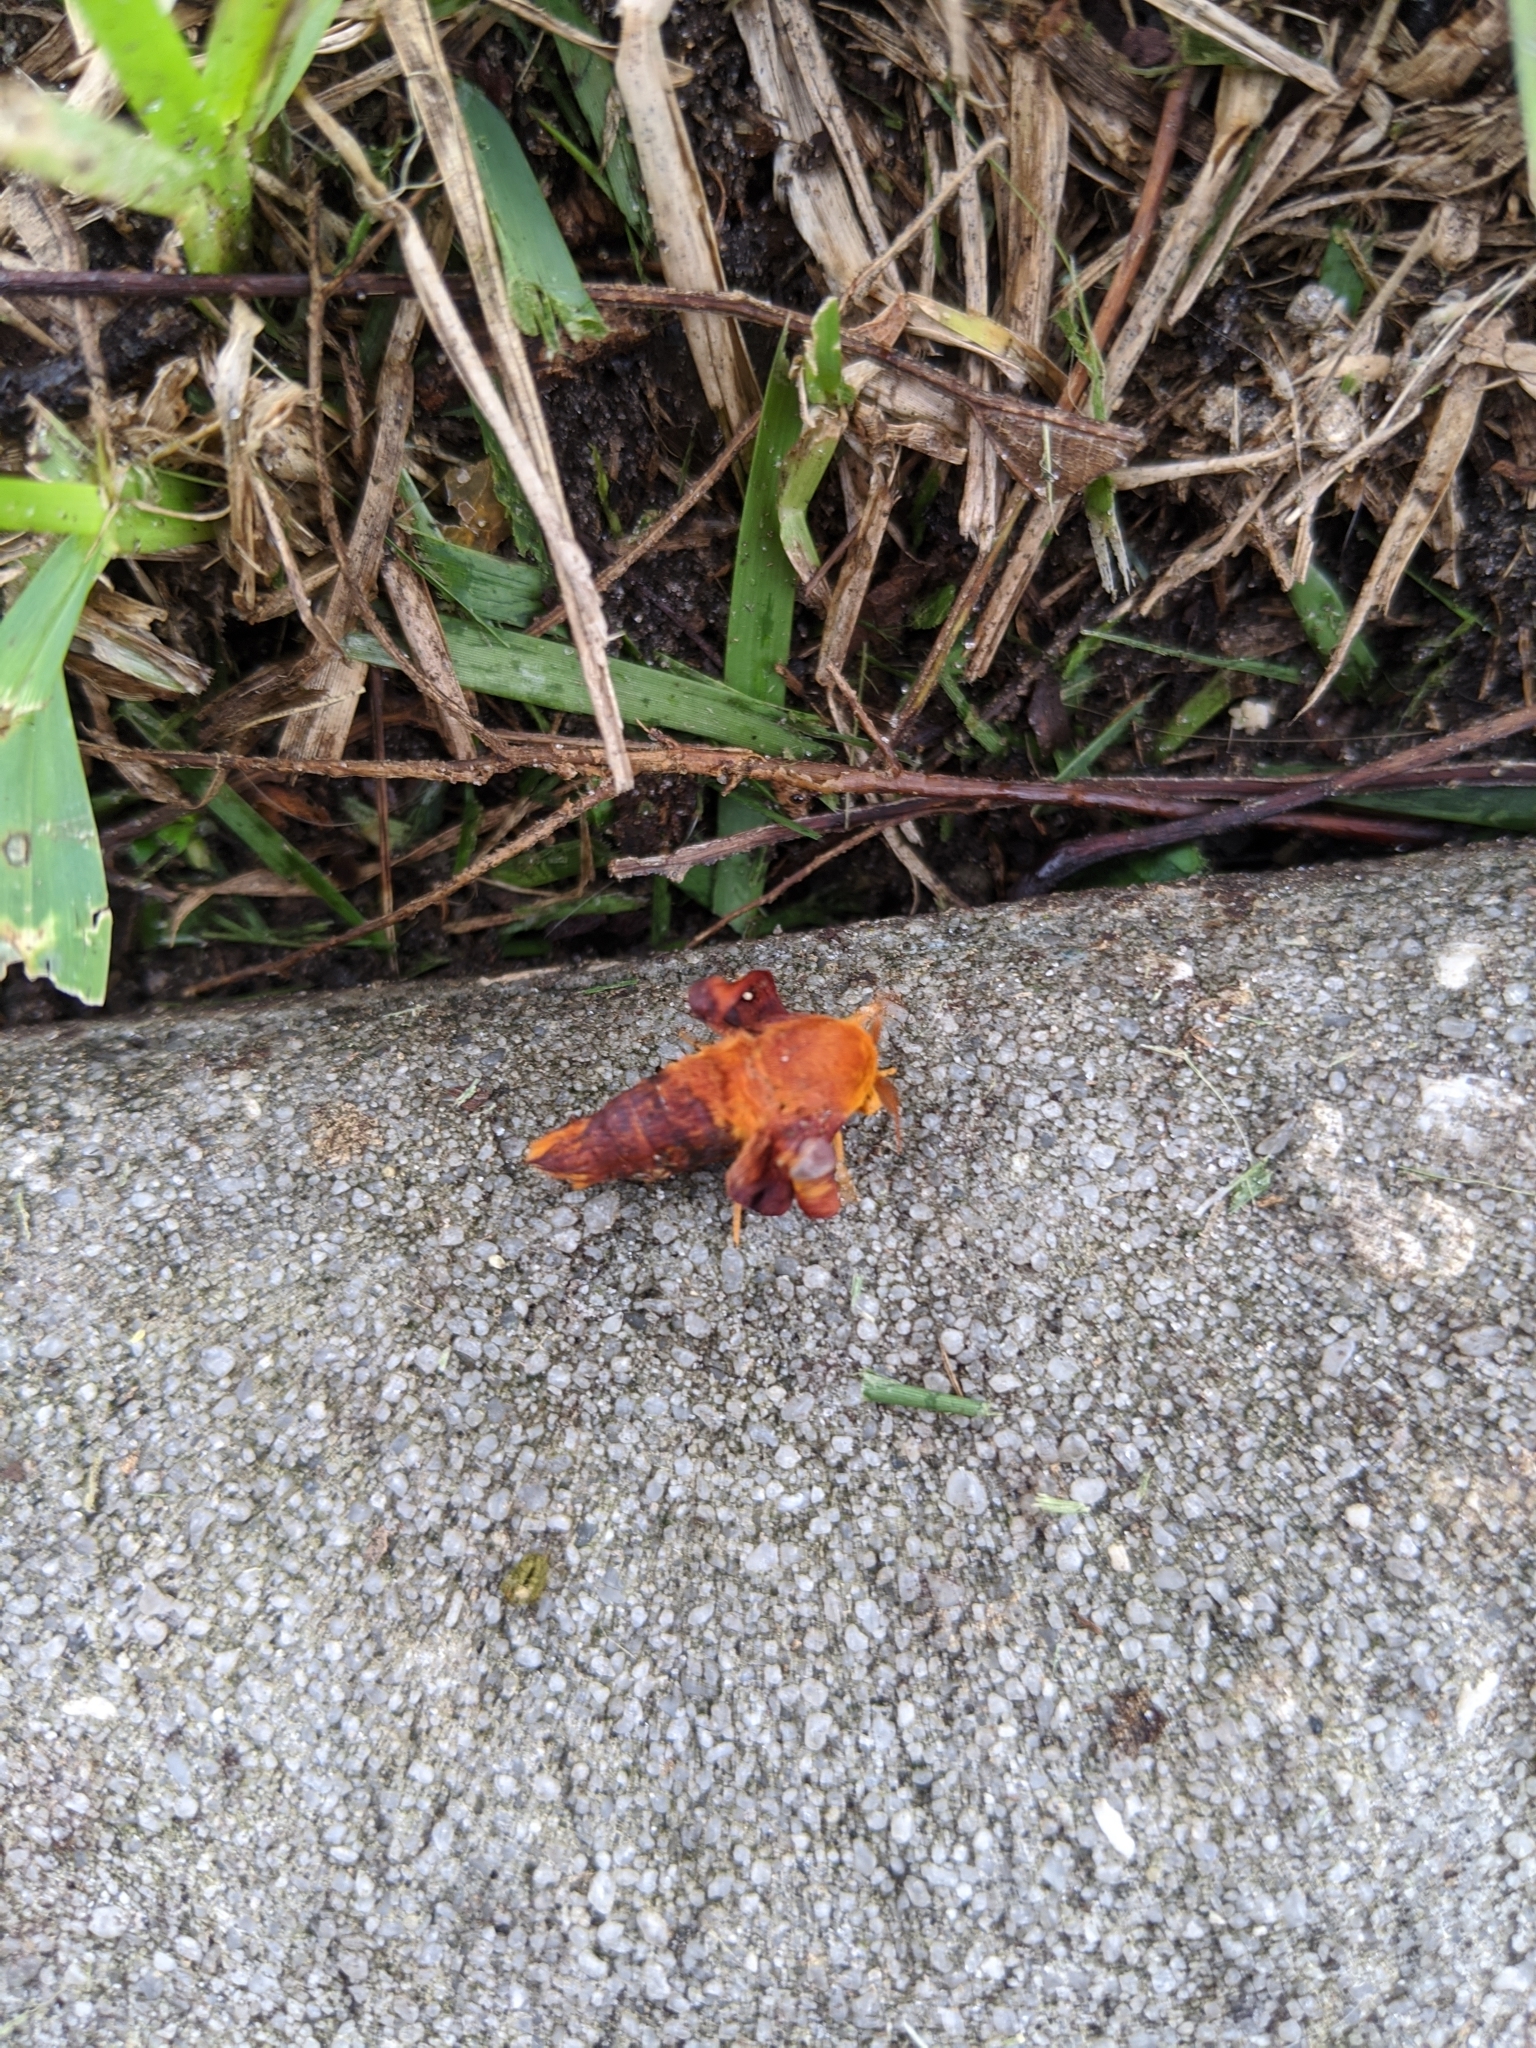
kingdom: Animalia
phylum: Arthropoda
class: Insecta
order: Lepidoptera
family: Saturniidae
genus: Anisota
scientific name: Anisota virginiensis
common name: Pink striped oakworm moth
